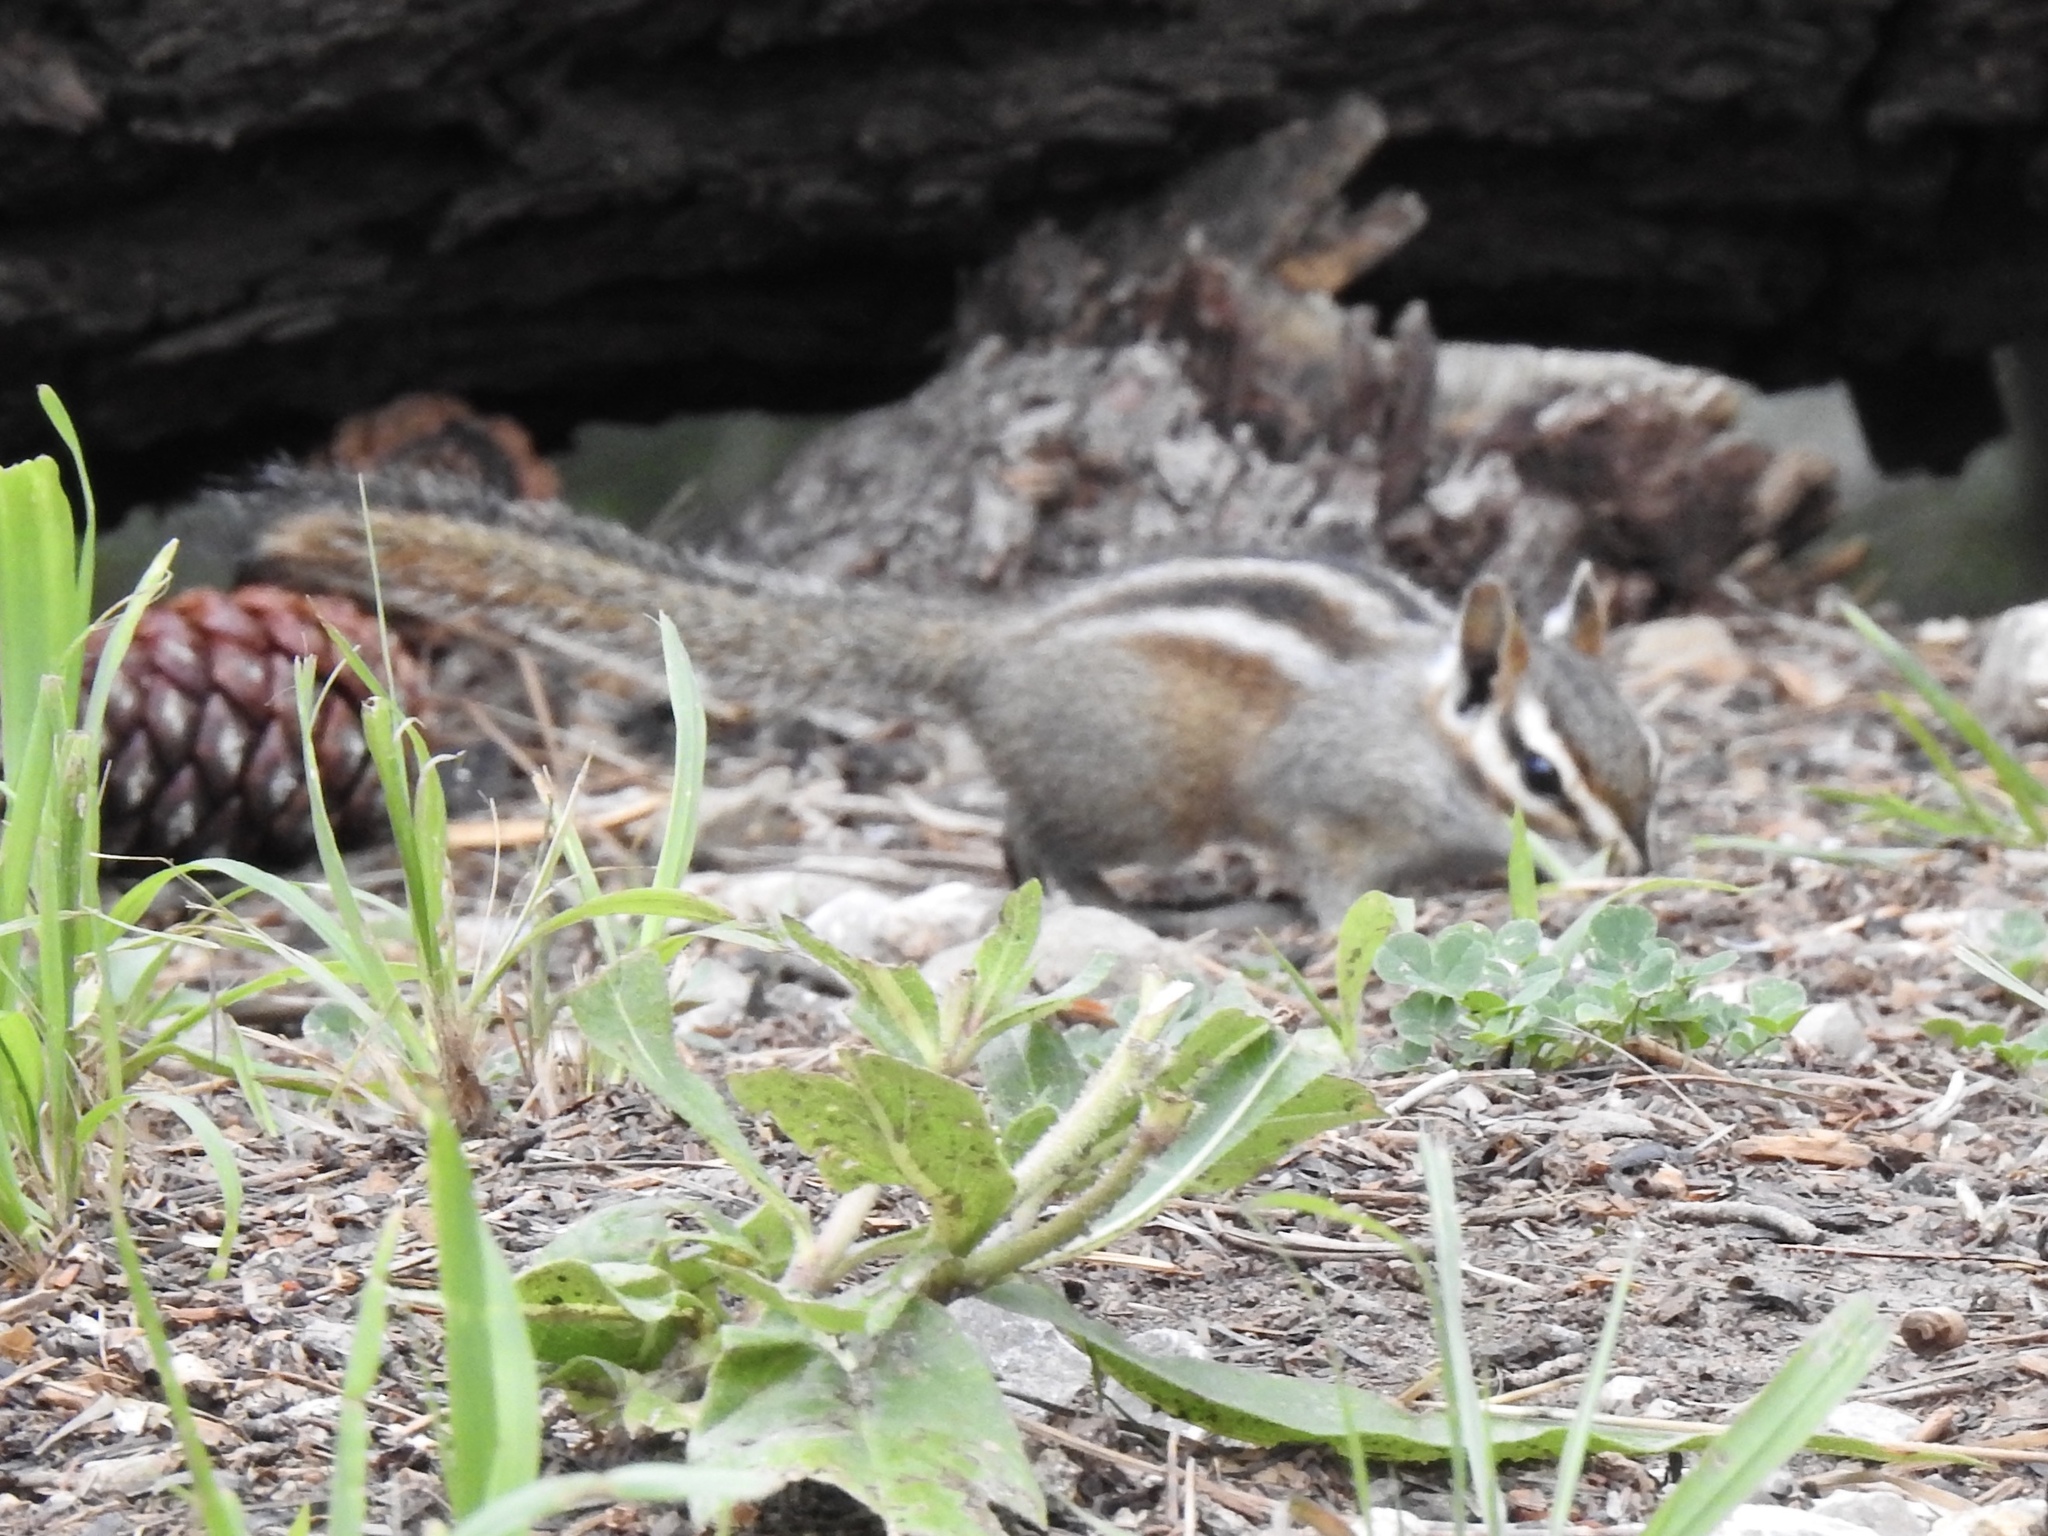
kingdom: Animalia
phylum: Chordata
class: Mammalia
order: Rodentia
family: Sciuridae
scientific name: Sciuridae
